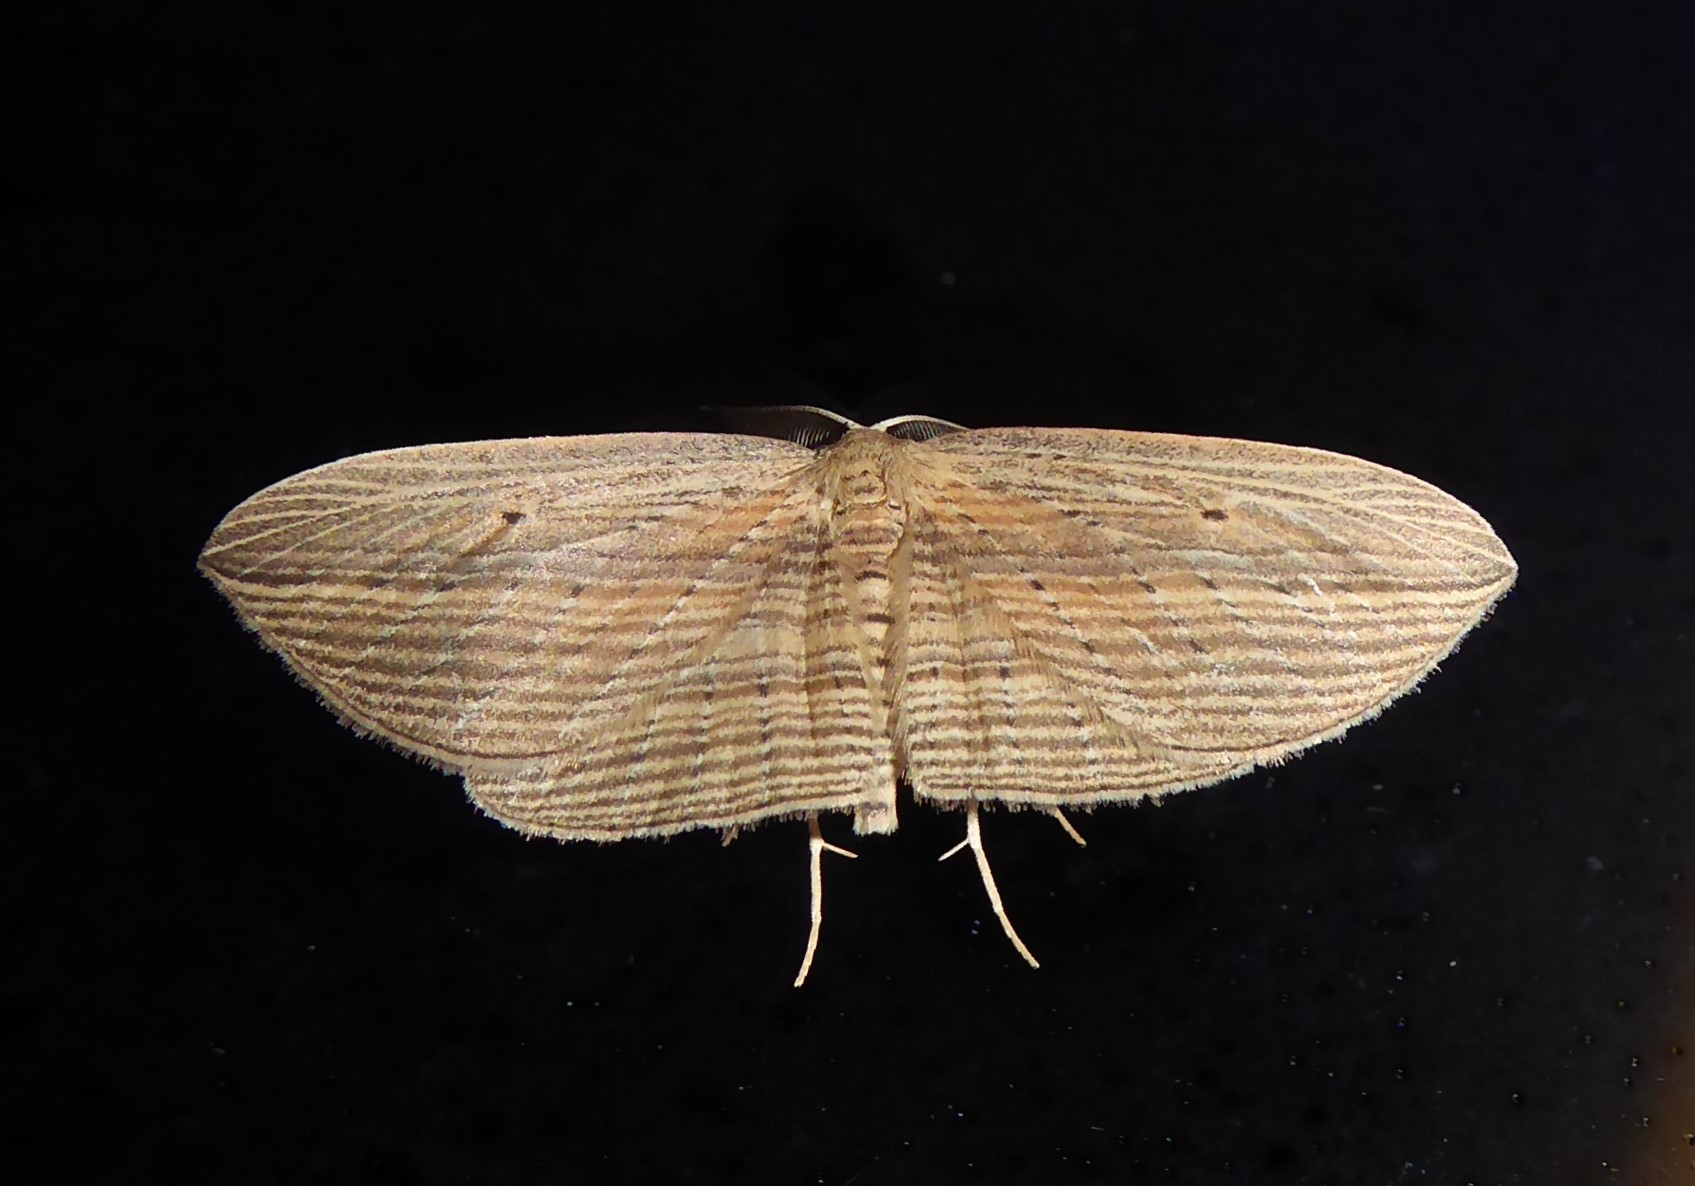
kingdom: Animalia
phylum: Arthropoda
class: Insecta
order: Lepidoptera
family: Geometridae
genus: Epiphryne
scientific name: Epiphryne verriculata
